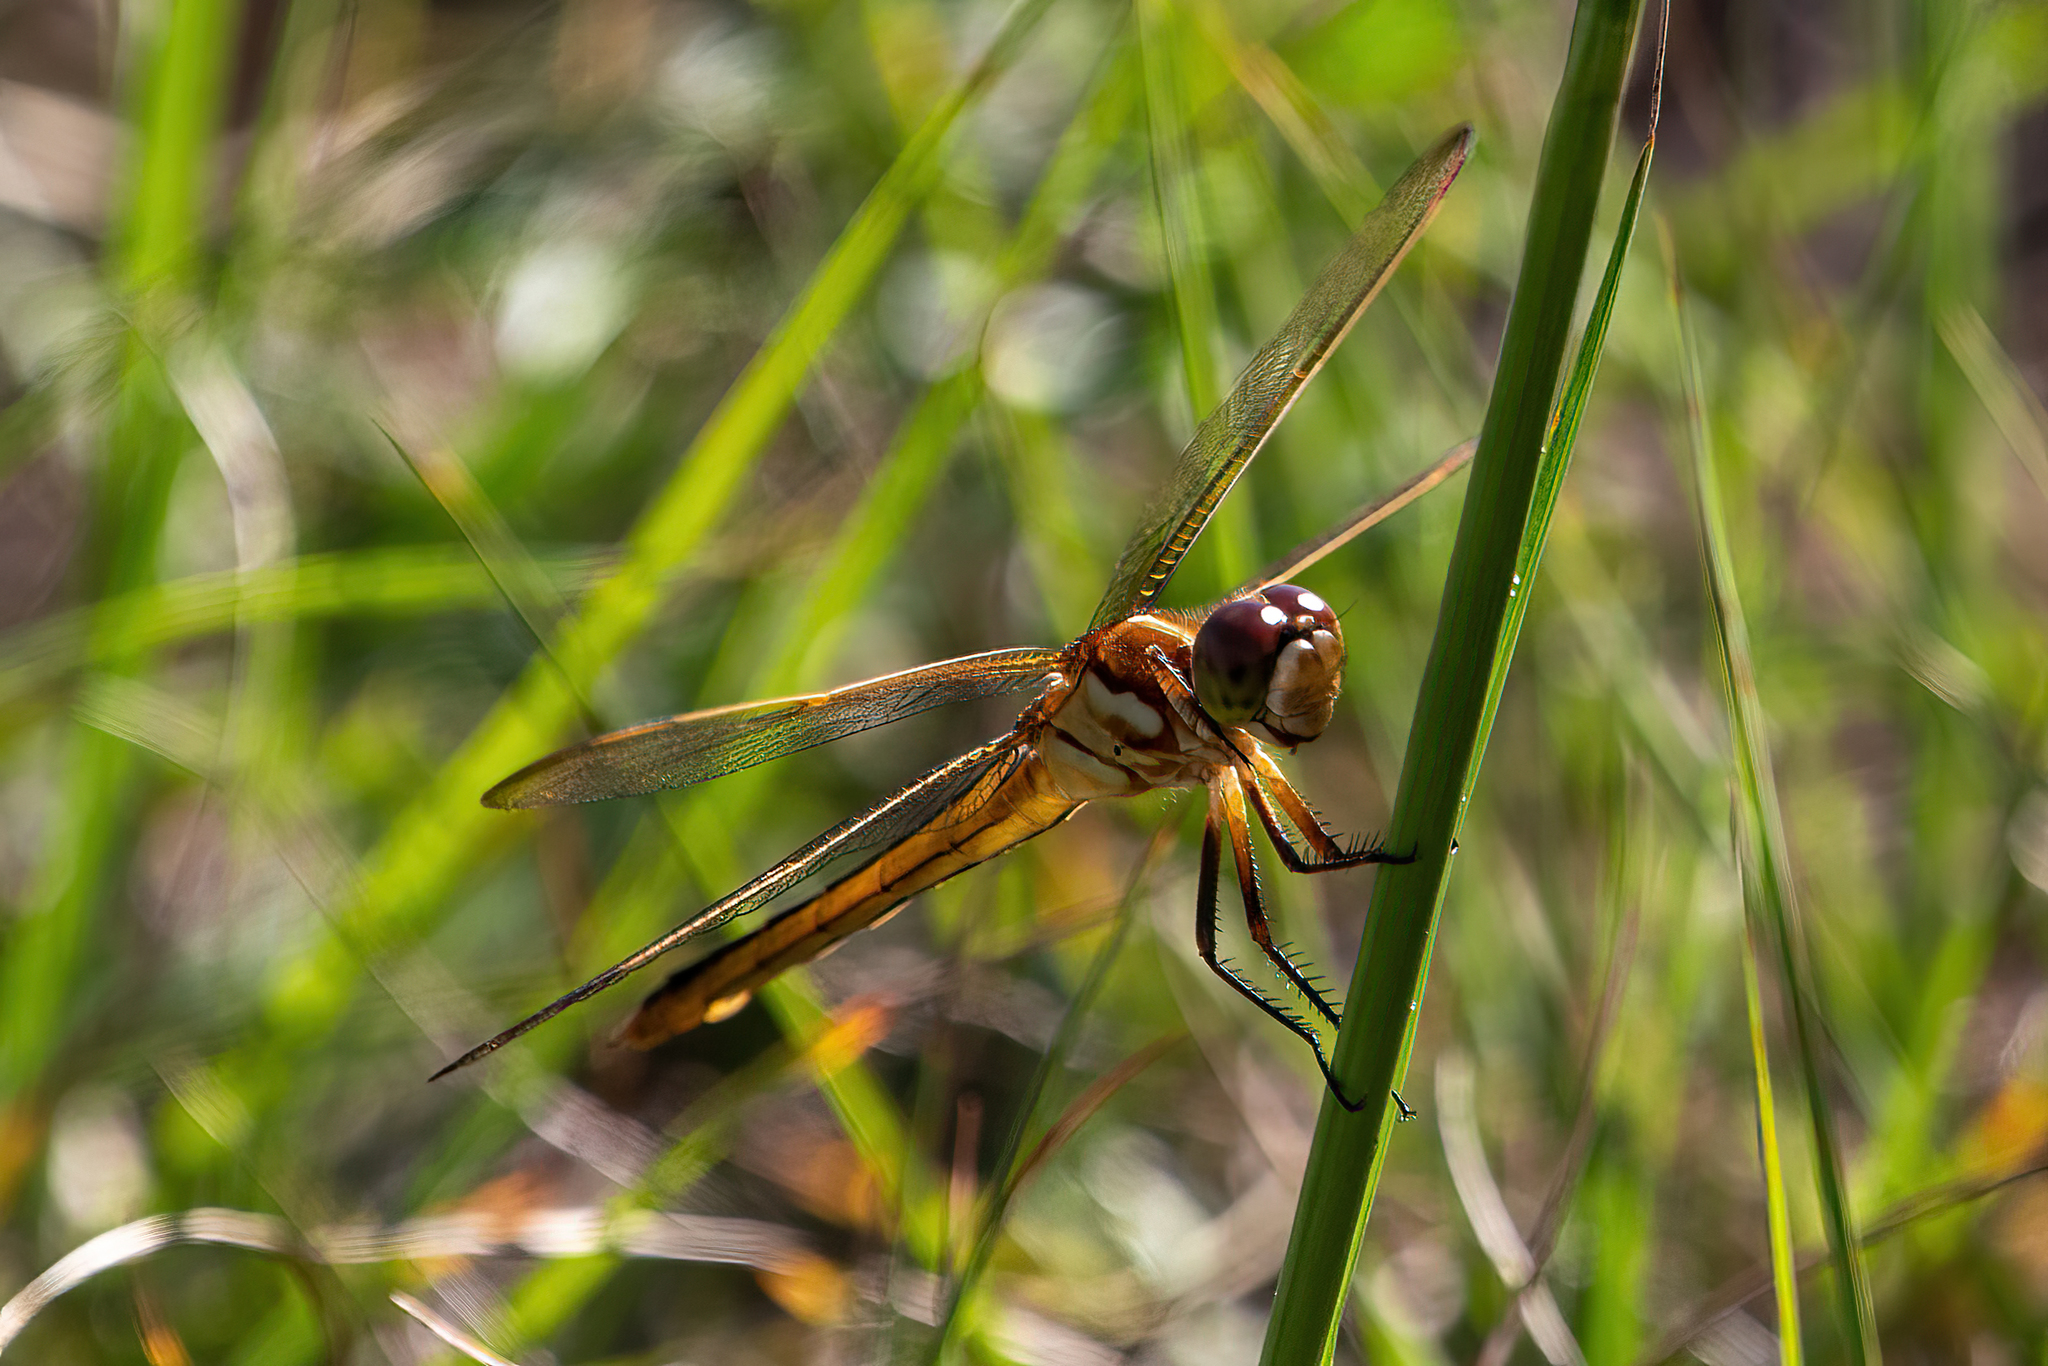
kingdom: Animalia
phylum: Arthropoda
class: Insecta
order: Odonata
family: Libellulidae
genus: Libellula
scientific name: Libellula auripennis
